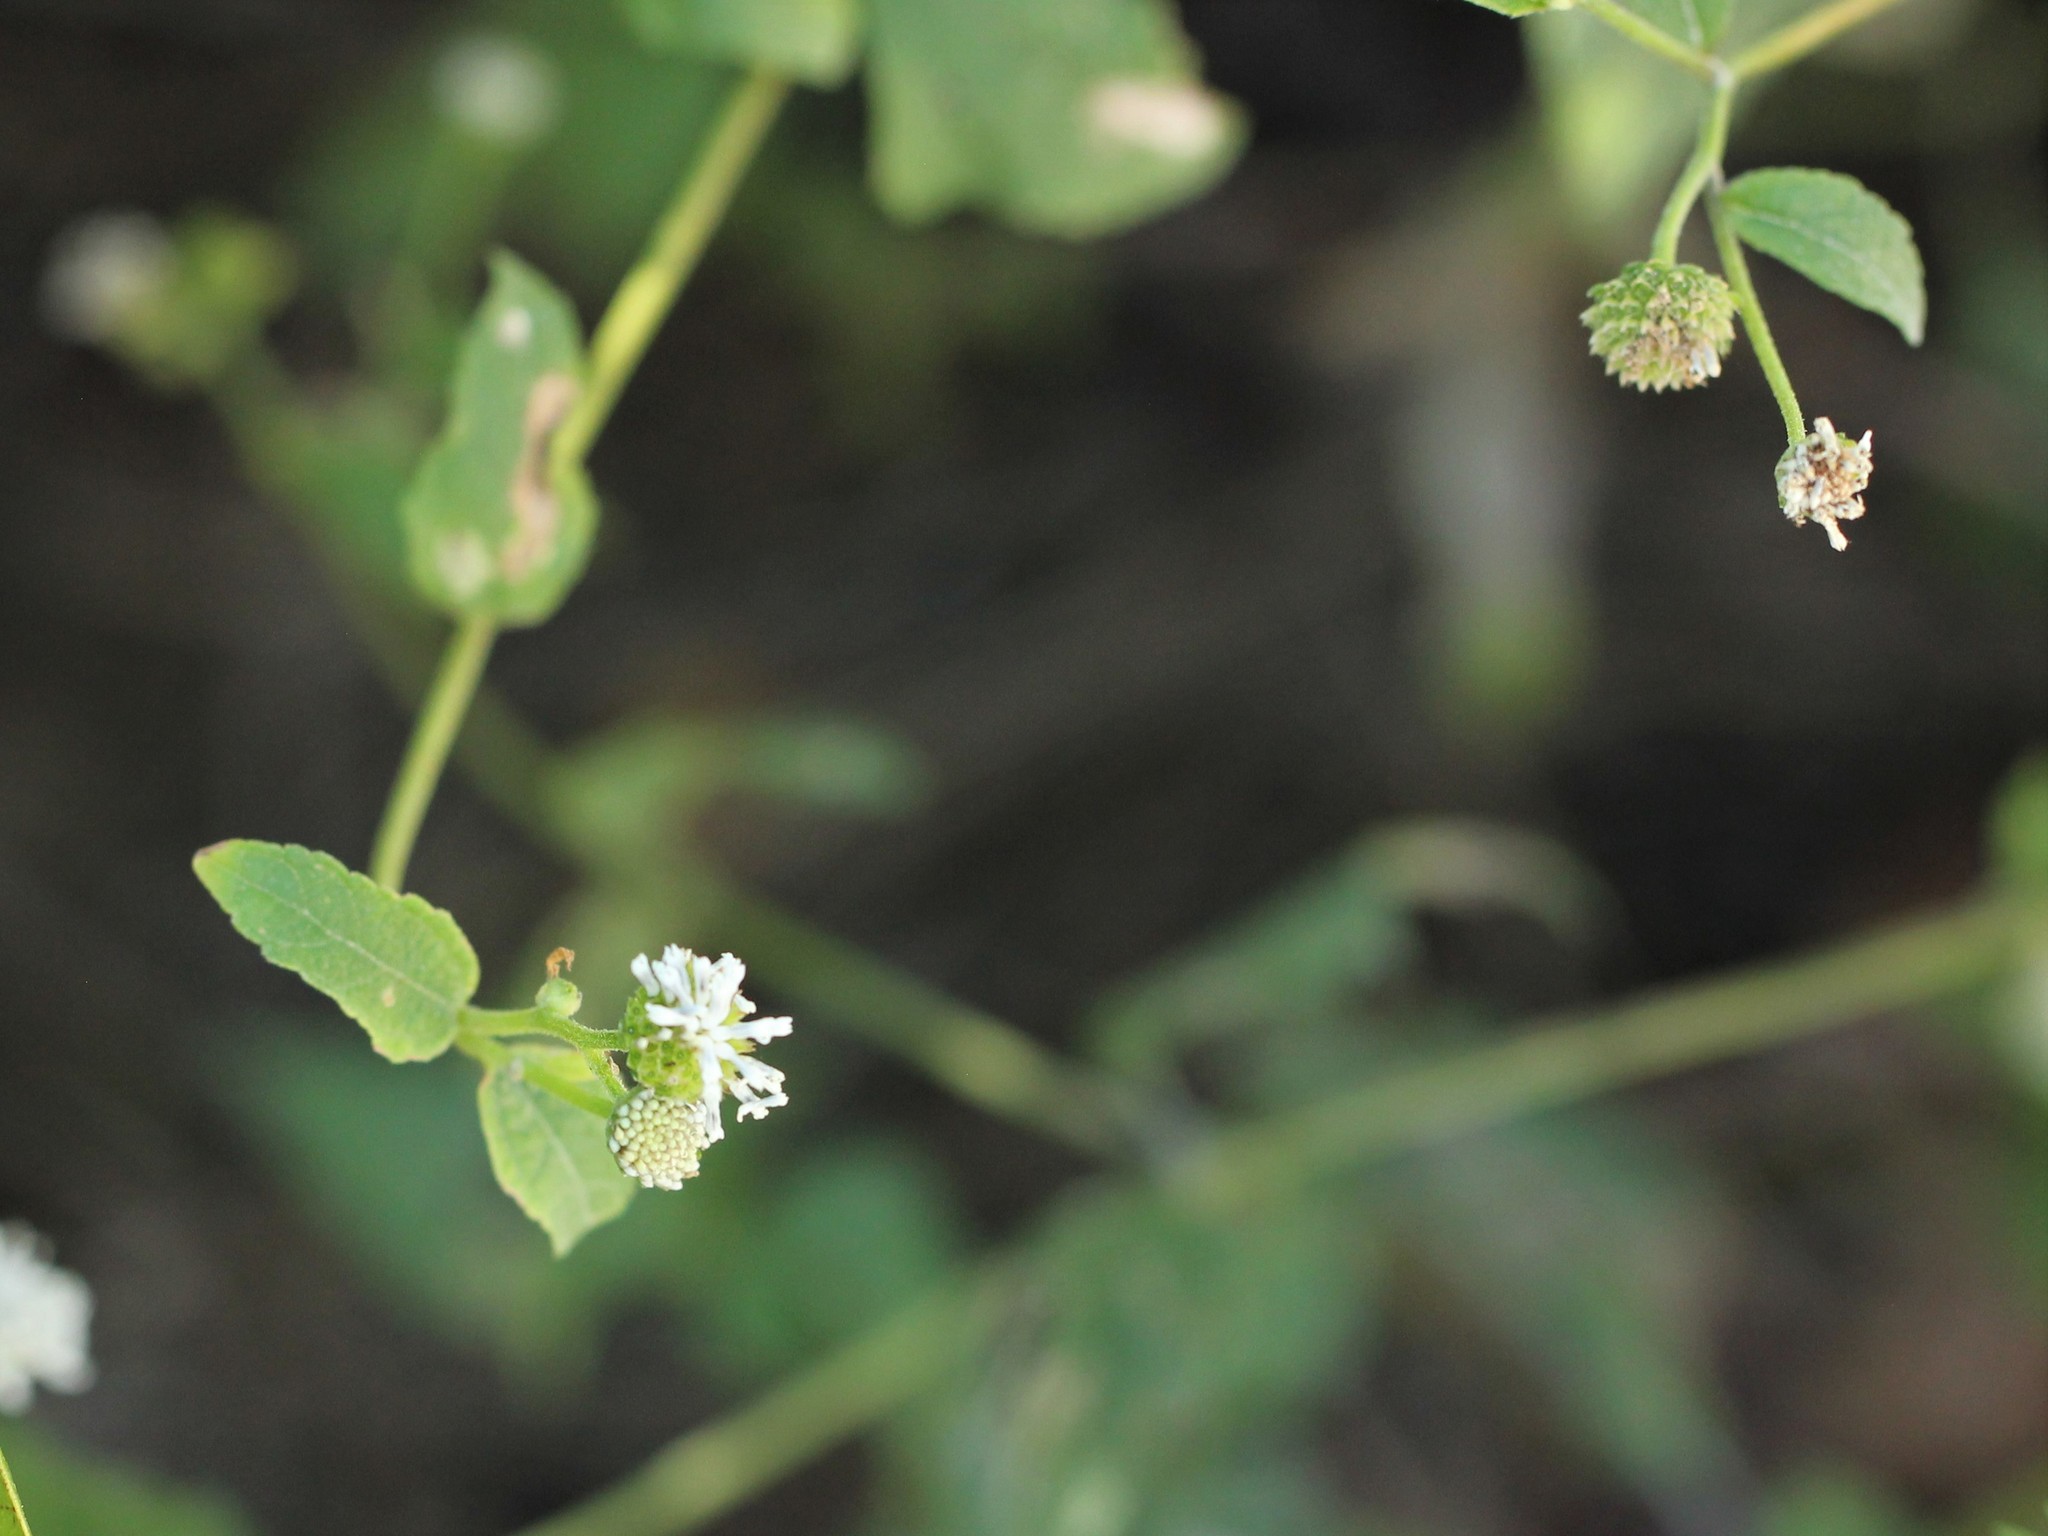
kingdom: Plantae
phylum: Tracheophyta
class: Magnoliopsida
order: Asterales
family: Asteraceae
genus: Melanthera
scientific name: Melanthera nivea
